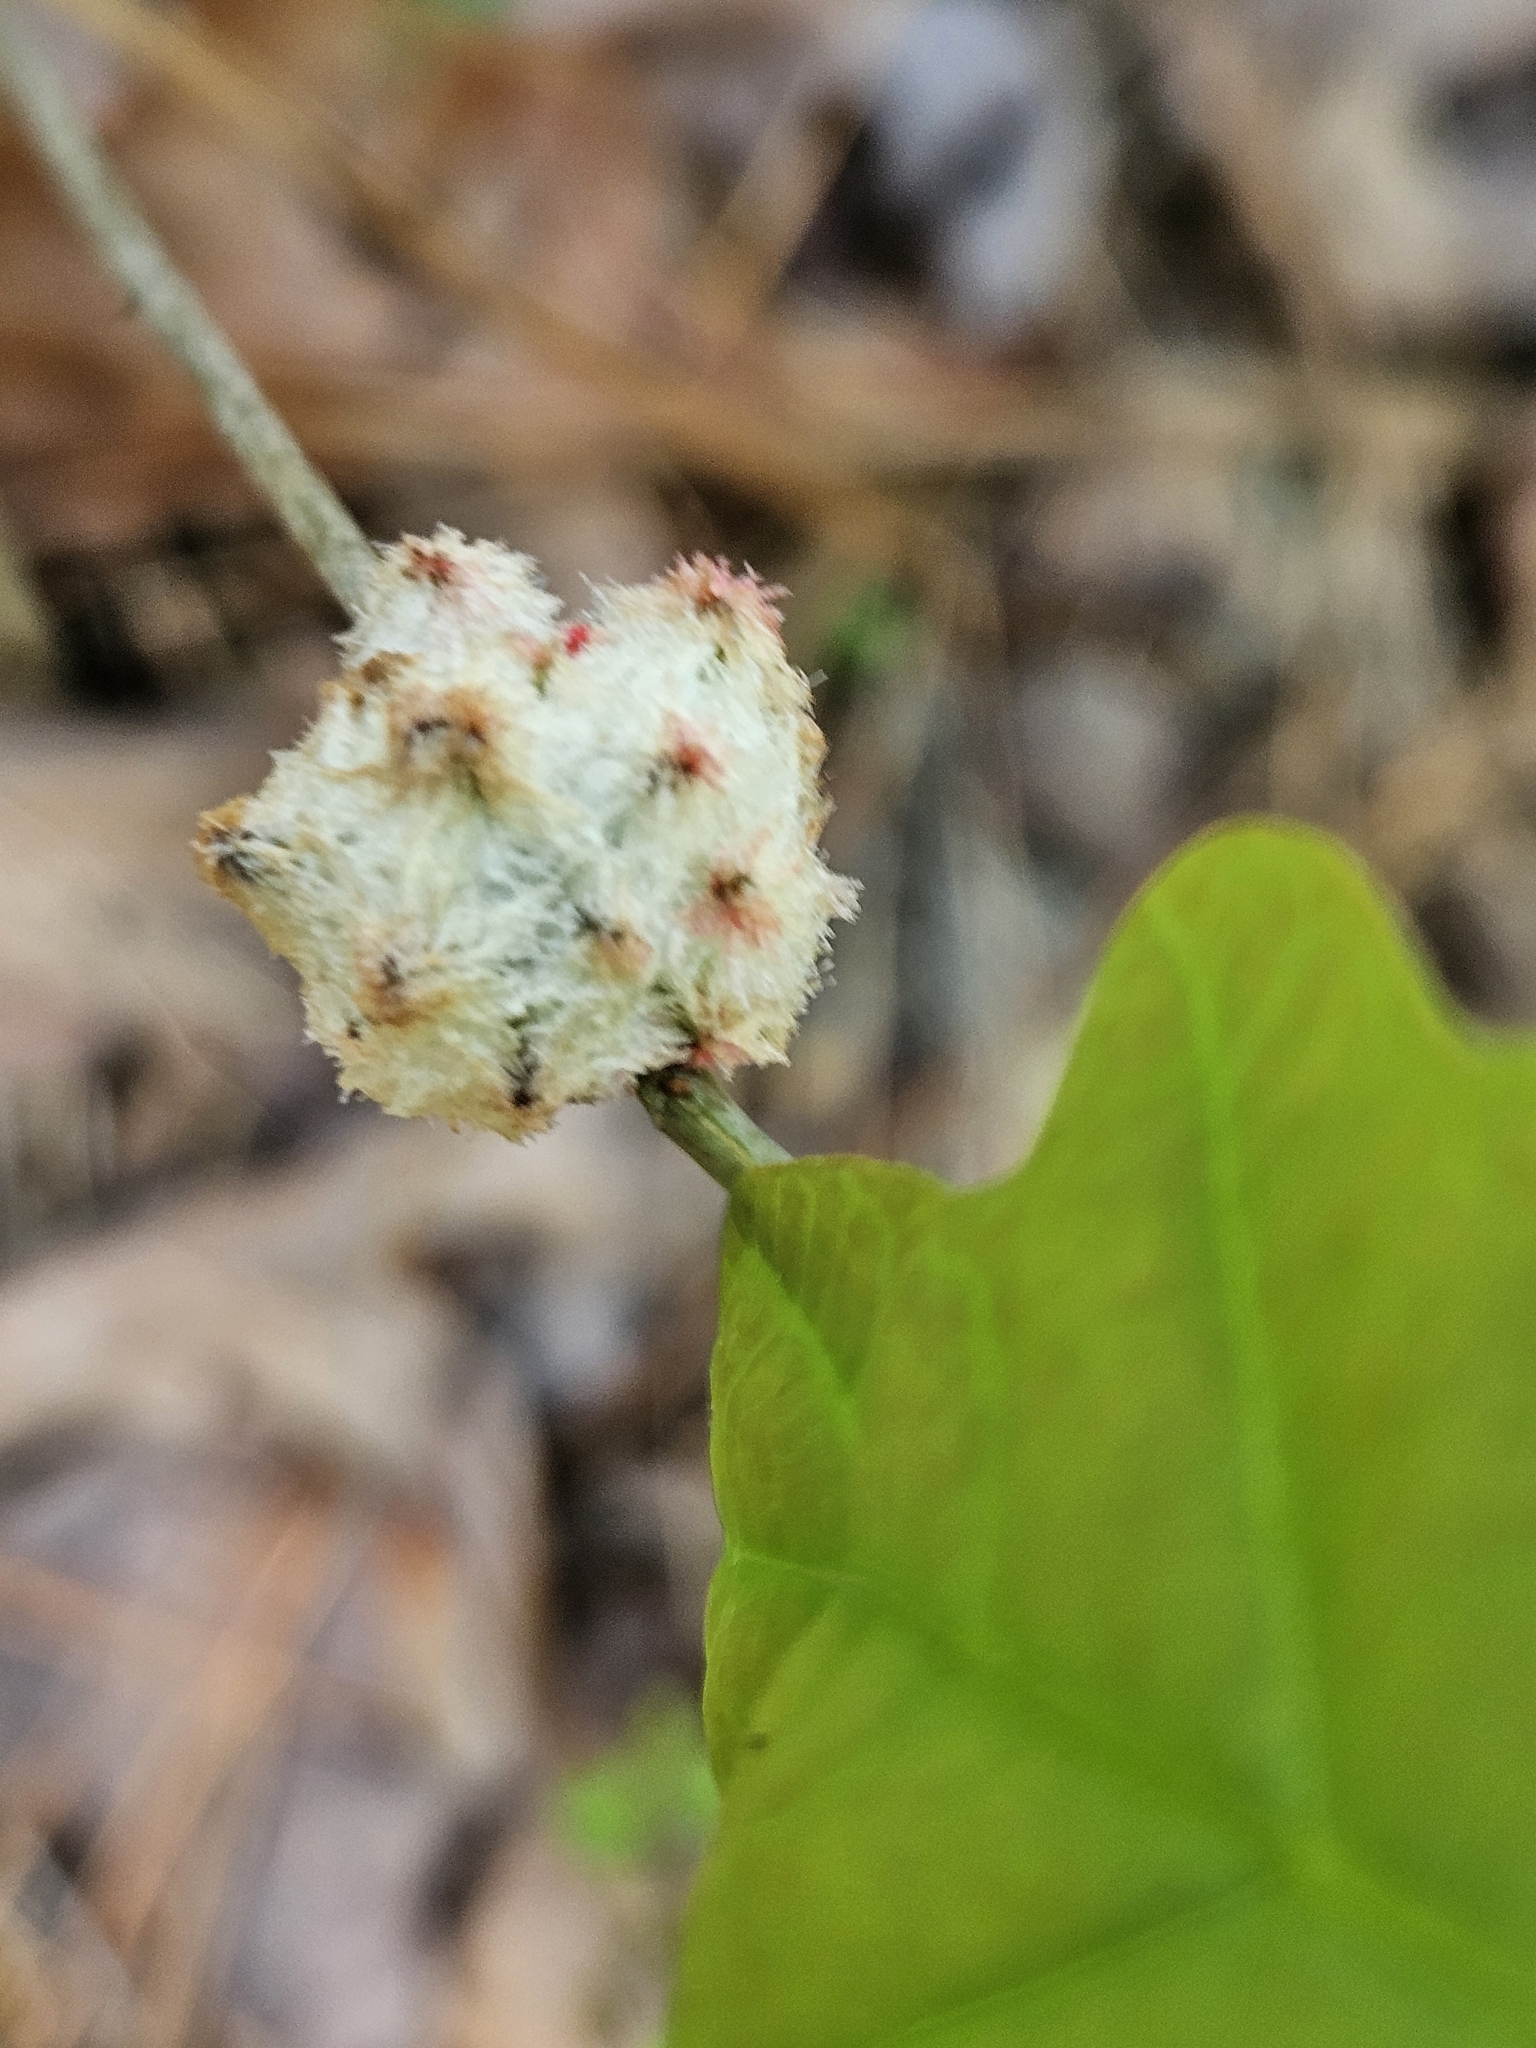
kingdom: Animalia
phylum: Arthropoda
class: Insecta
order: Hymenoptera
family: Cynipidae
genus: Callirhytis
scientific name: Callirhytis
